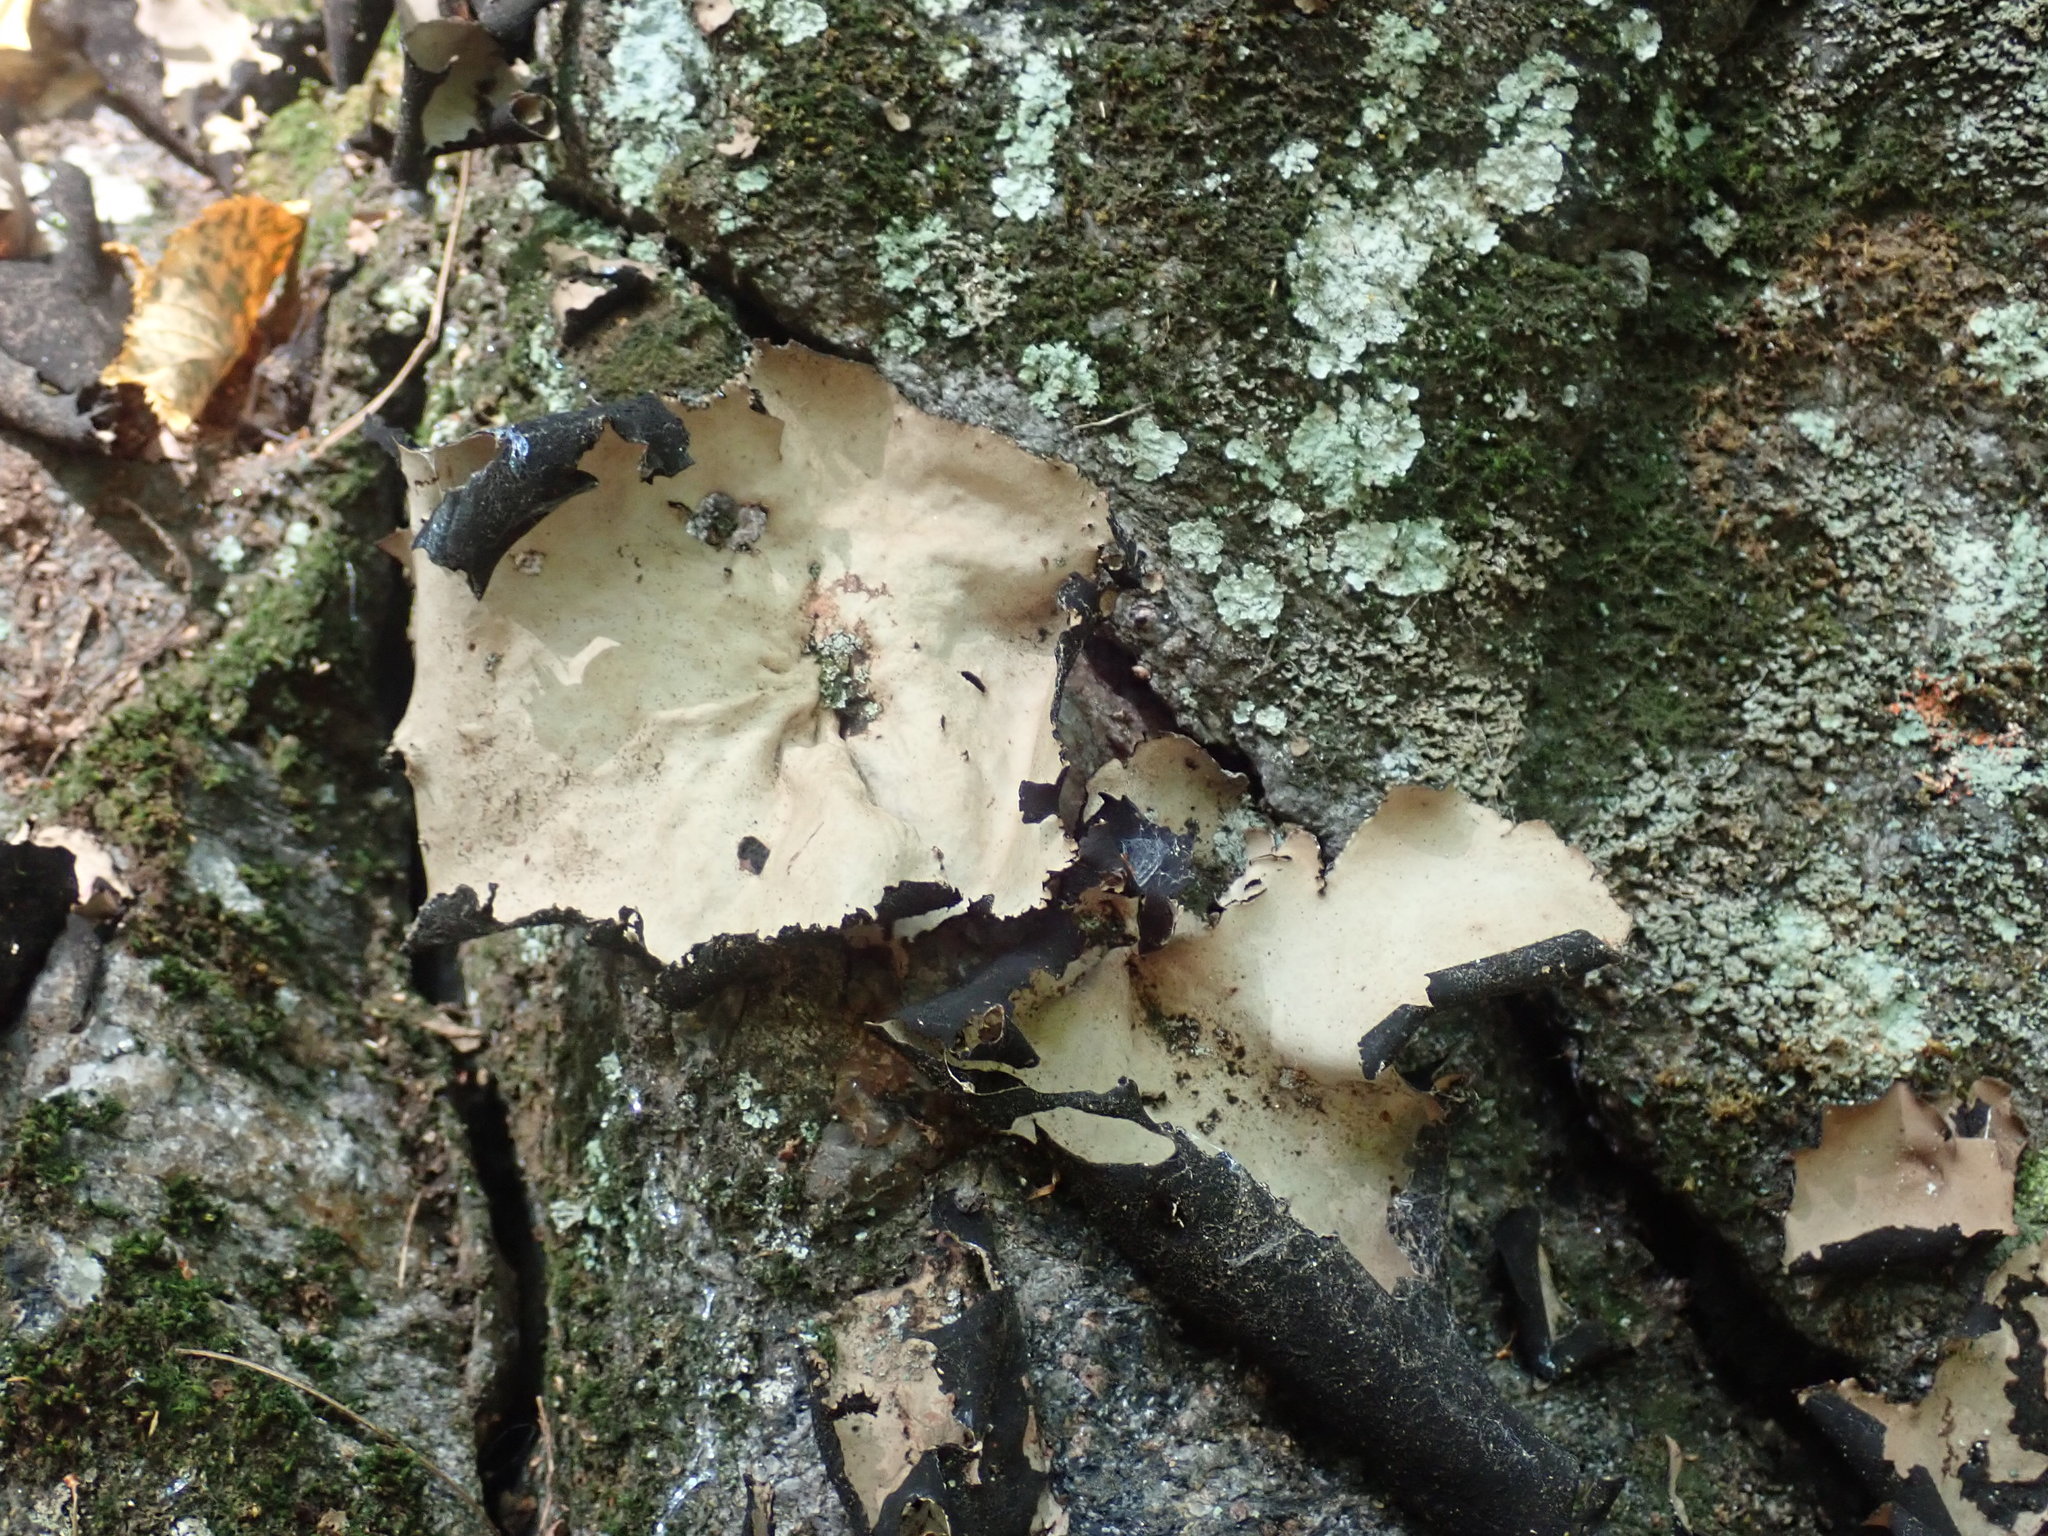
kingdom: Fungi
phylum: Ascomycota
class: Lecanoromycetes
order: Umbilicariales
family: Umbilicariaceae
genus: Umbilicaria
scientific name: Umbilicaria mammulata
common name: Smooth rock tripe
